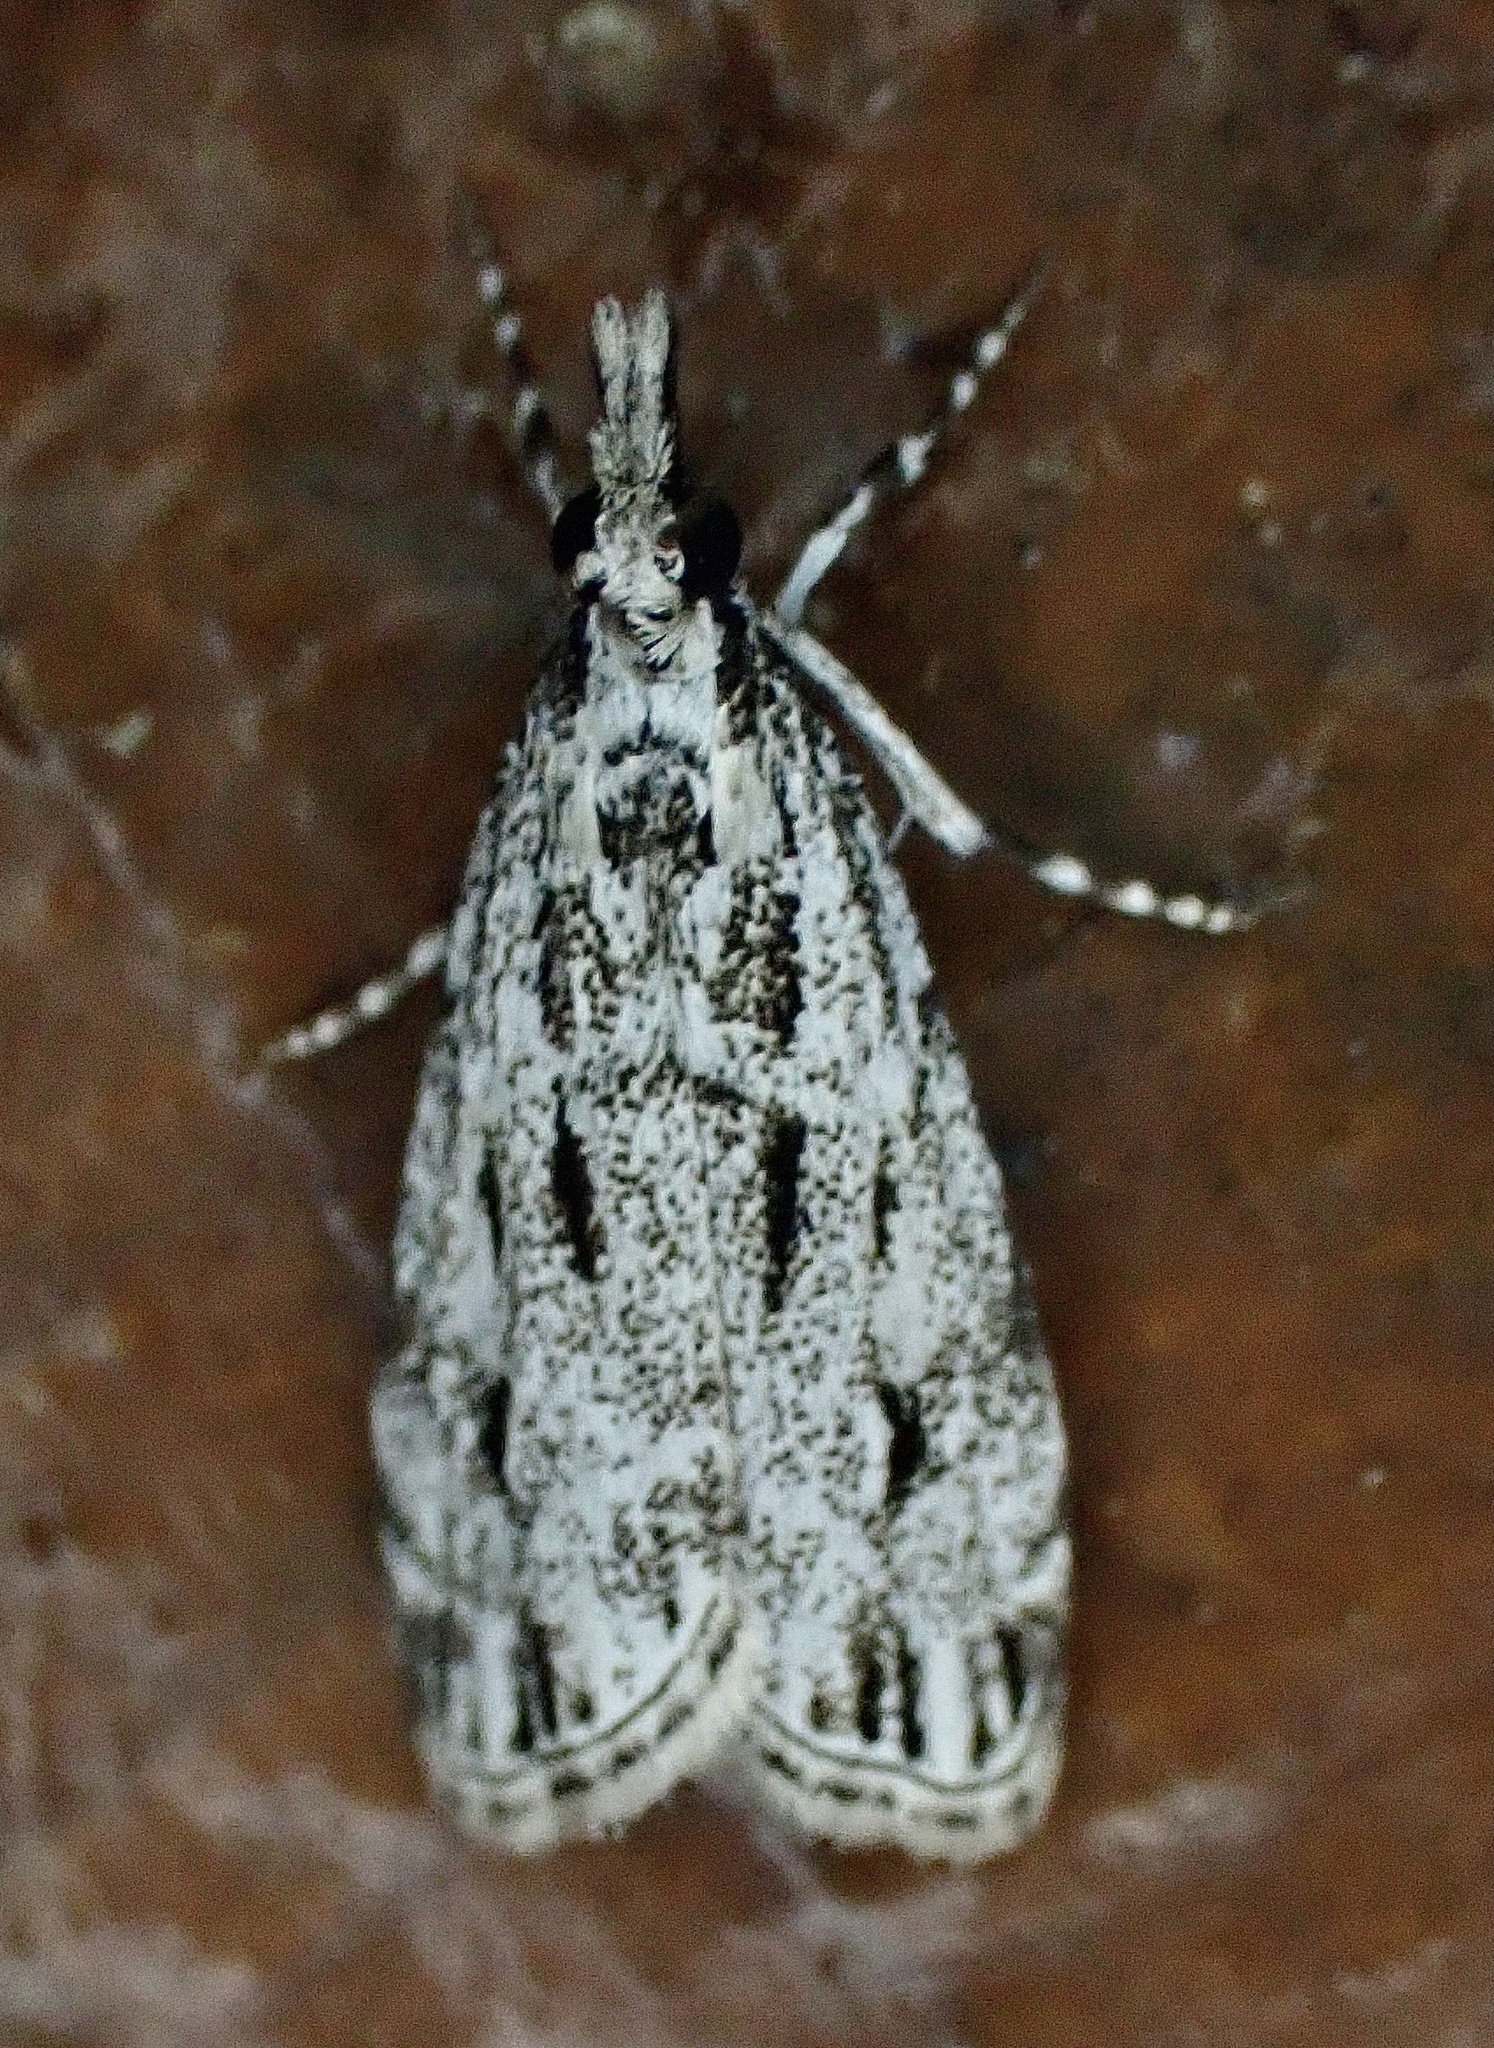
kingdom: Animalia
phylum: Arthropoda
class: Insecta
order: Lepidoptera
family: Crambidae
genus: Eudonia
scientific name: Eudonia strigalis
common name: Striped eudonia moth
